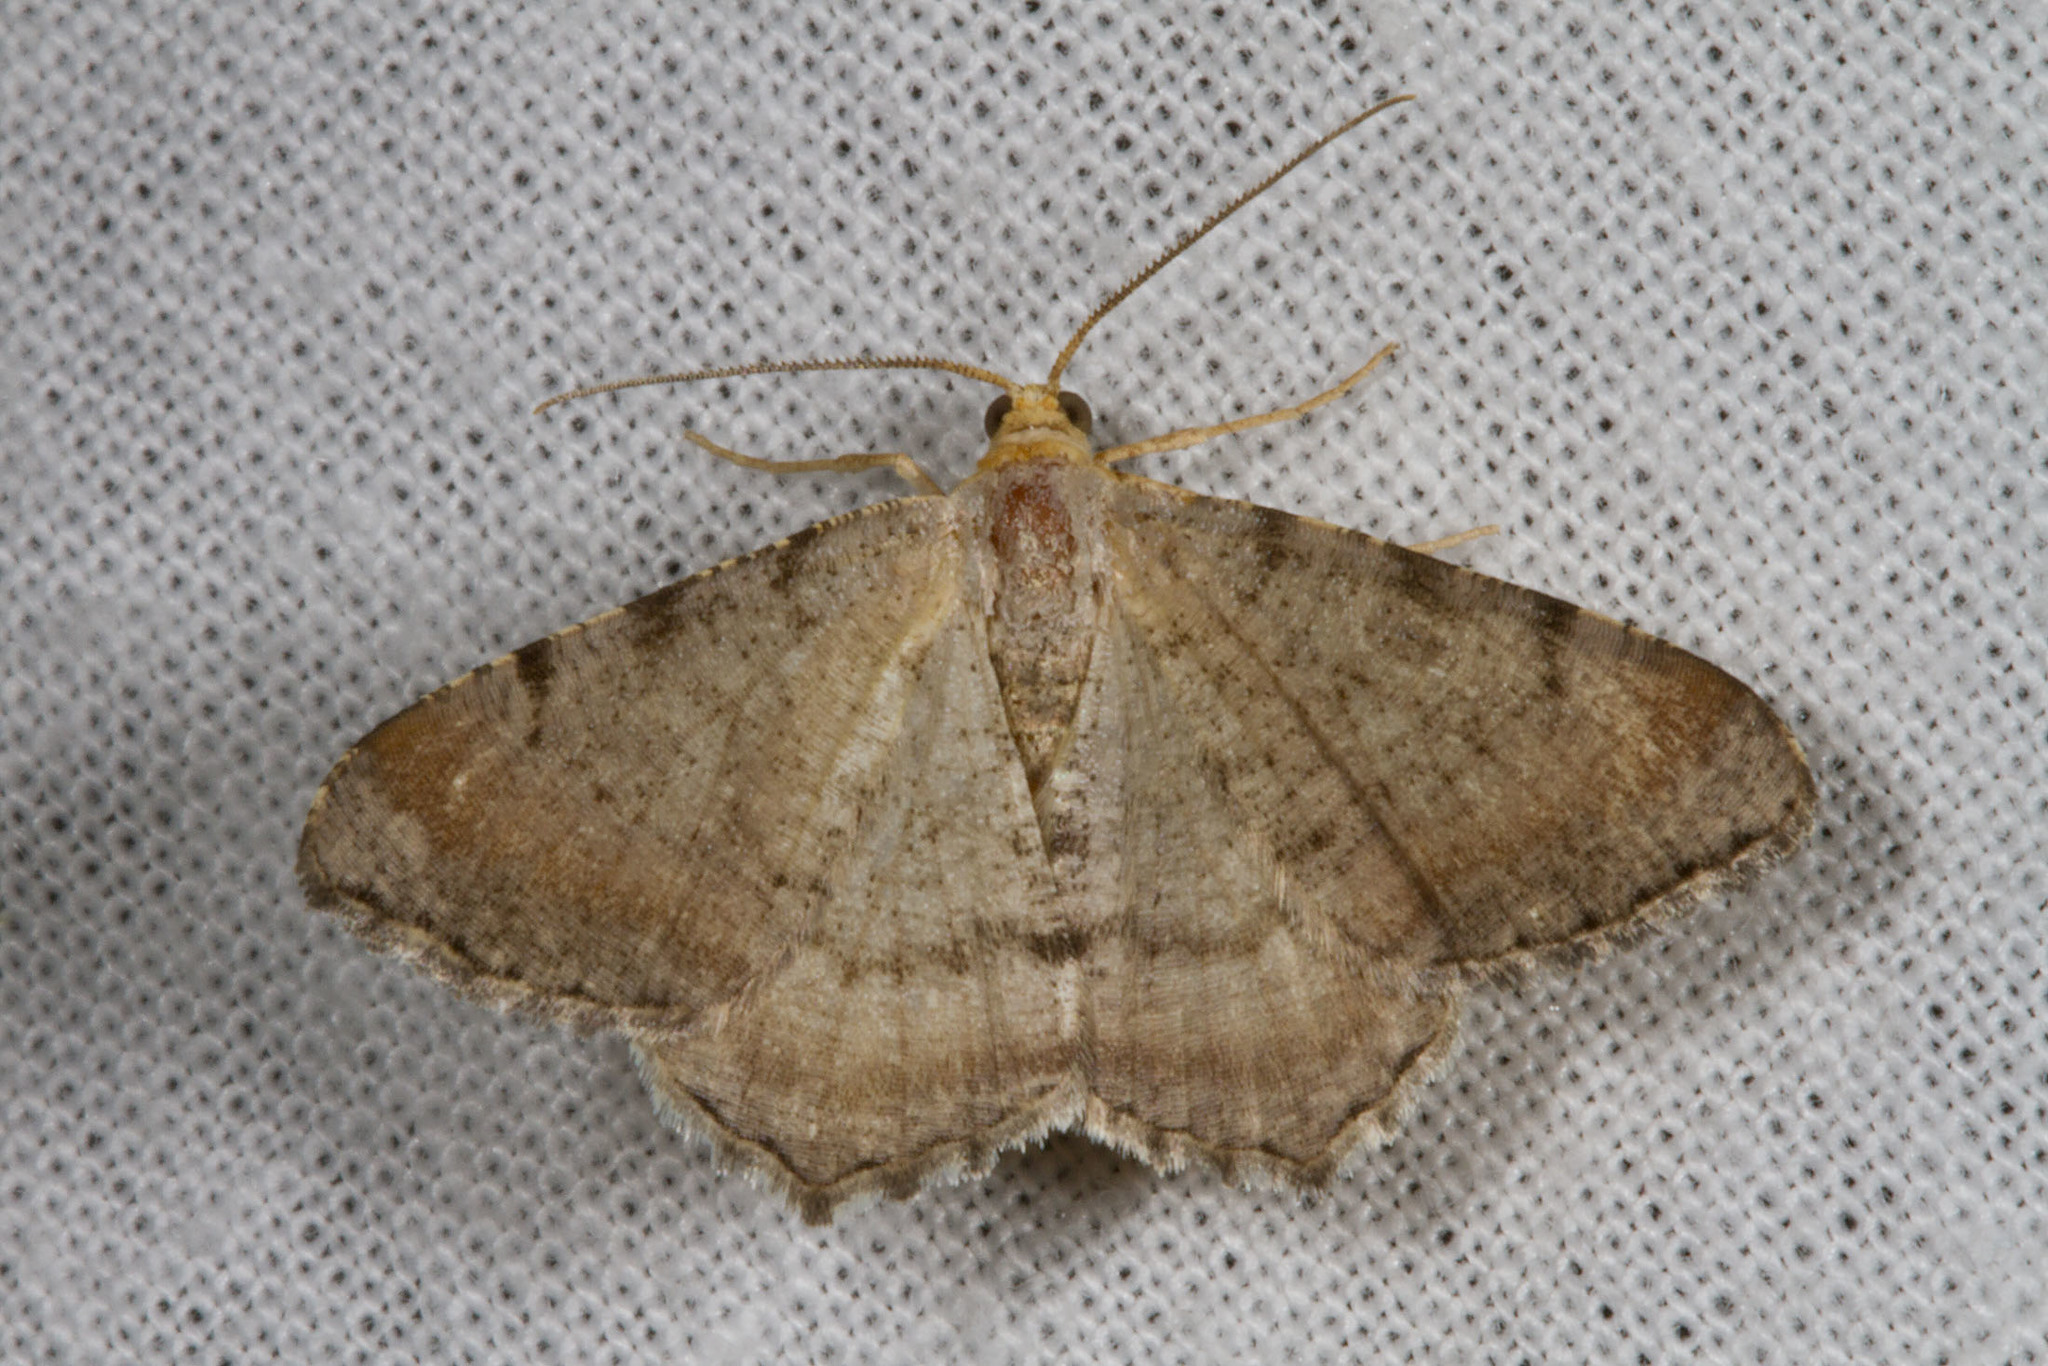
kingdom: Animalia
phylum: Arthropoda
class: Insecta
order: Lepidoptera
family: Geometridae
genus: Macaria
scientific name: Macaria minorata
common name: Minor angle moth
